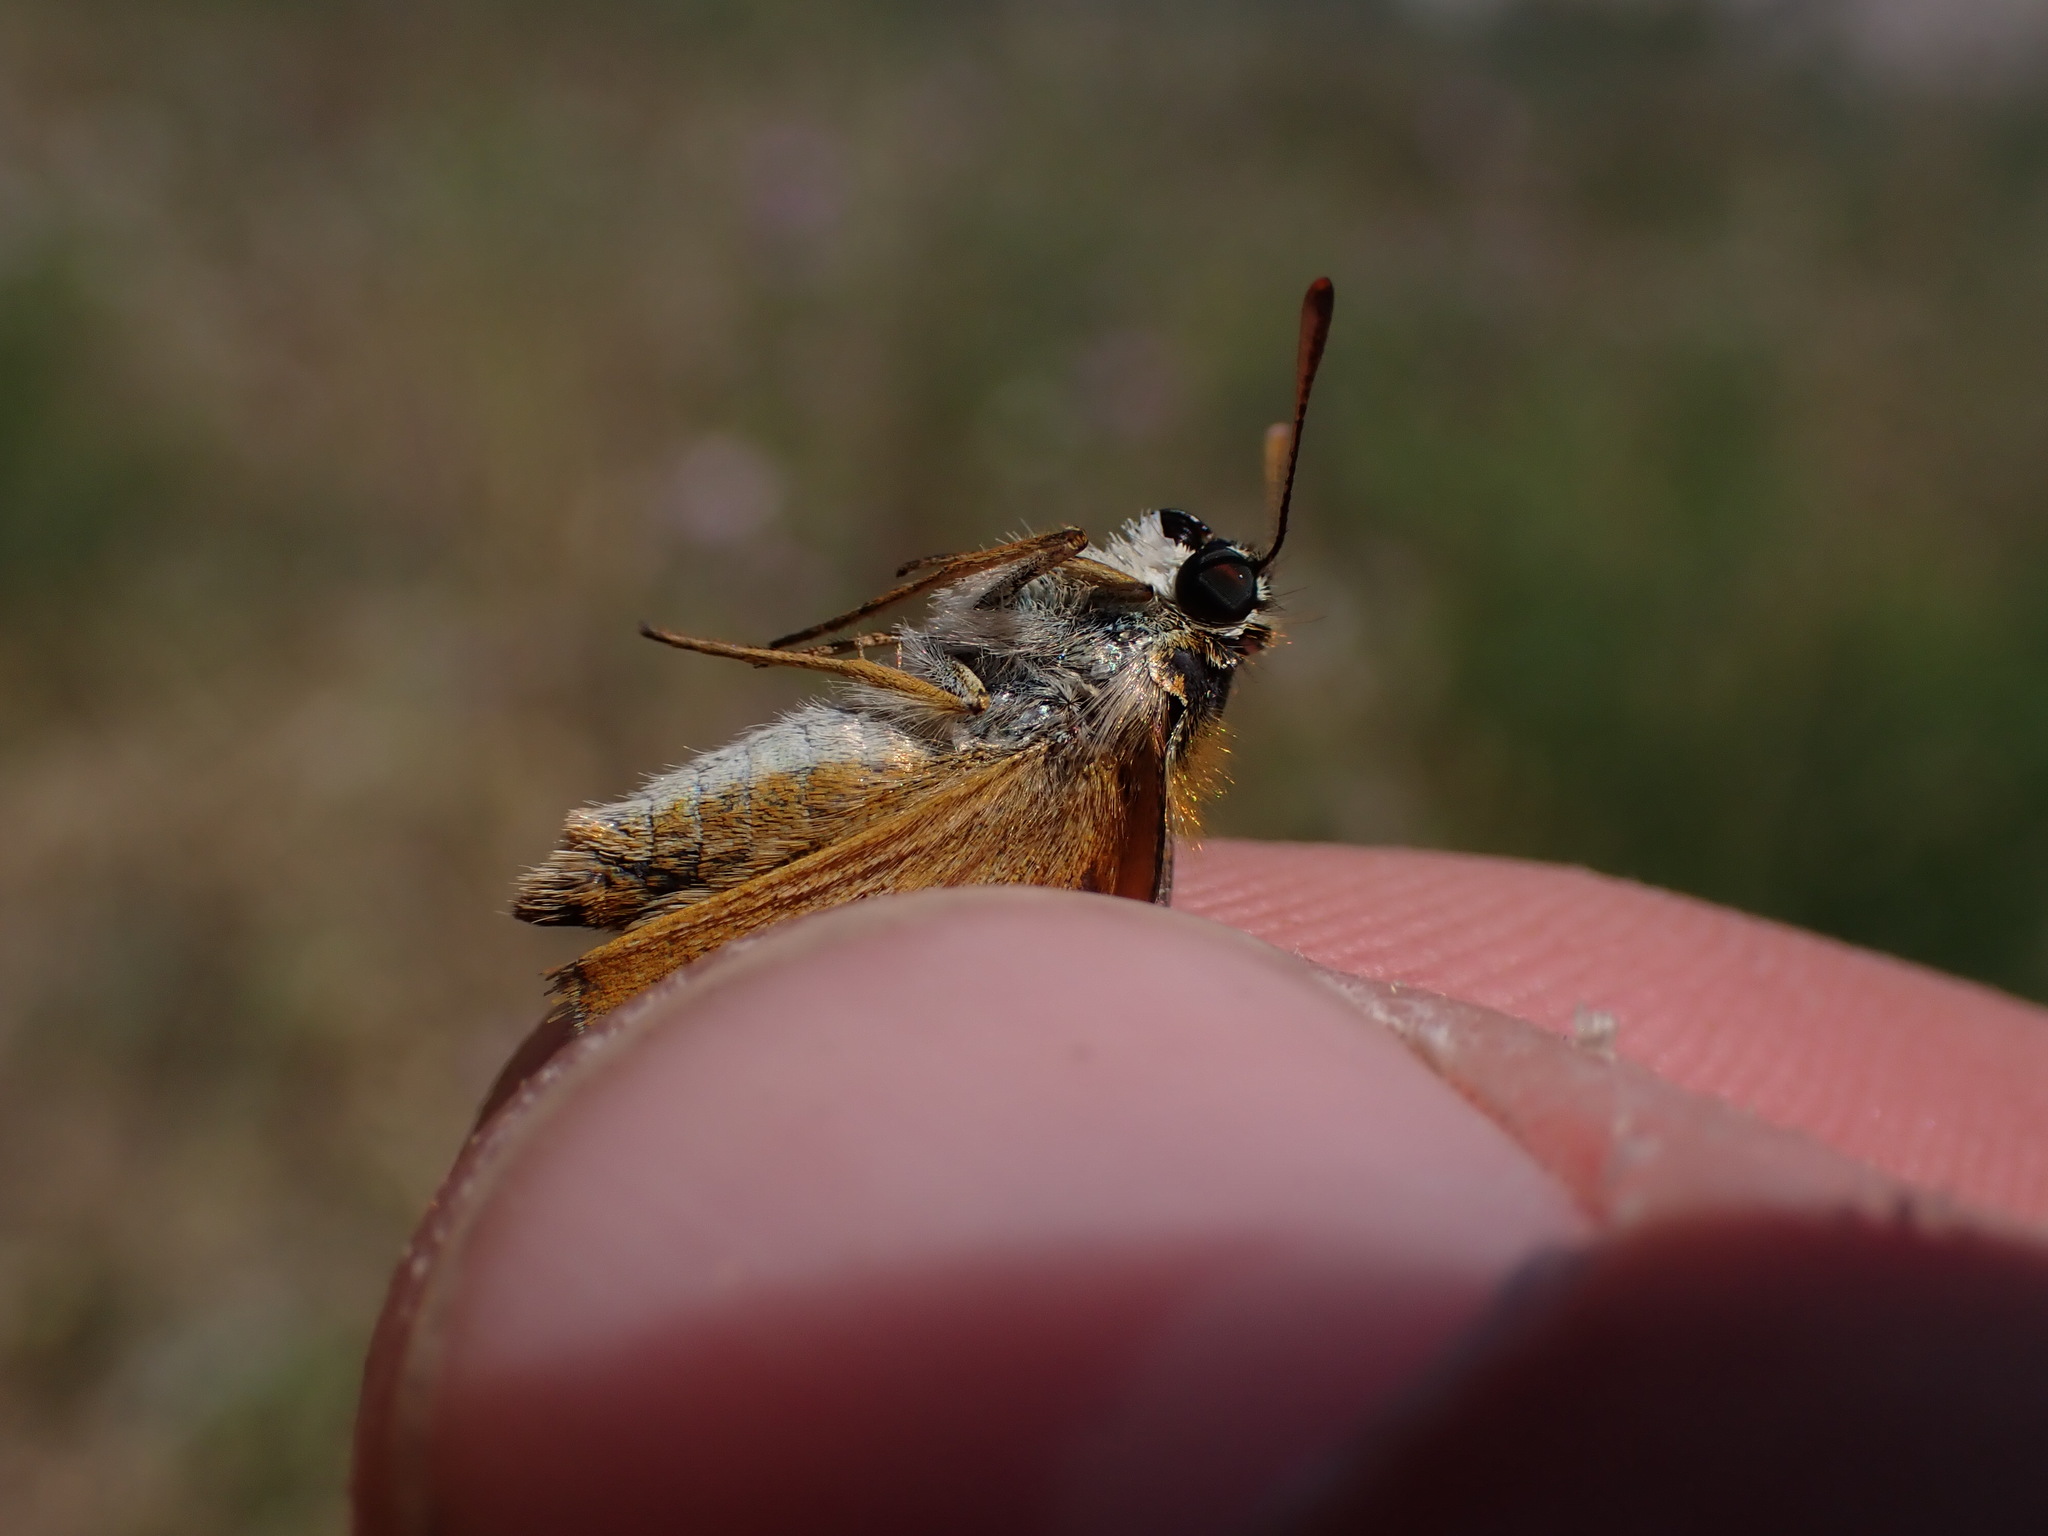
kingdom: Animalia
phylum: Arthropoda
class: Insecta
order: Lepidoptera
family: Hesperiidae
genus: Thymelicus
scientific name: Thymelicus acteon
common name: Lulworth skipper
